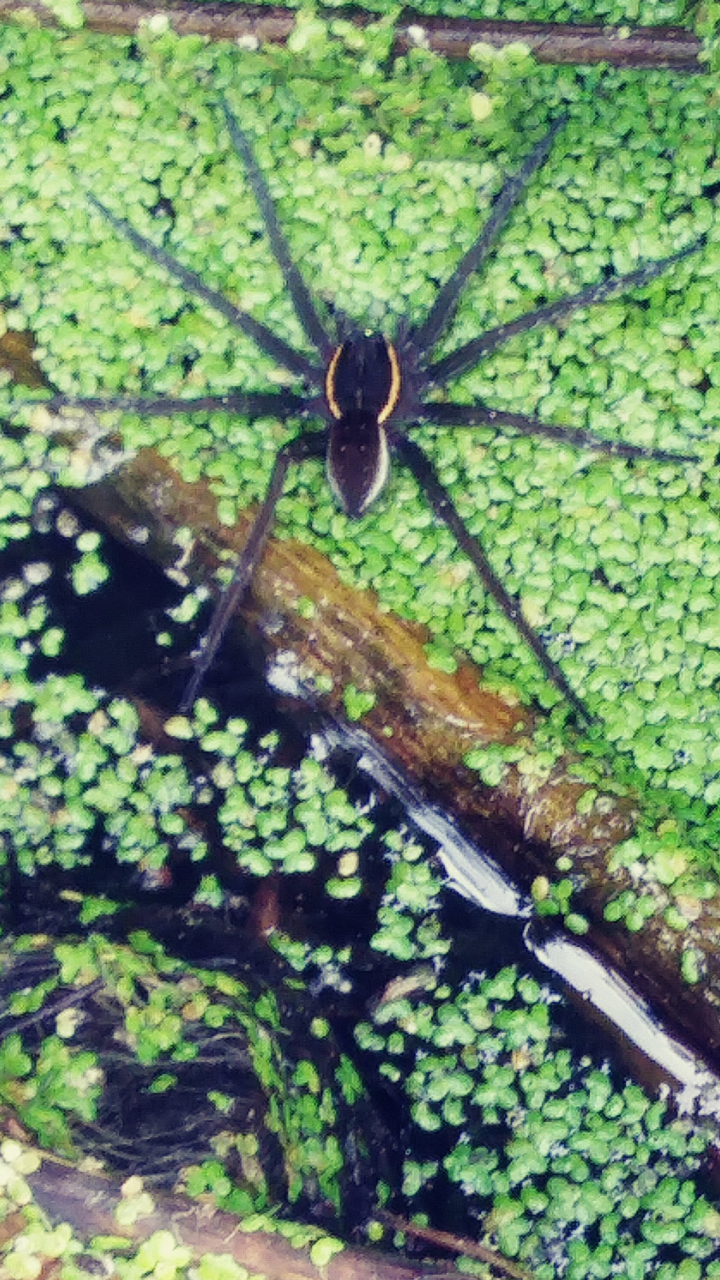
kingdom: Animalia
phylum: Arthropoda
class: Arachnida
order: Araneae
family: Pisauridae
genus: Dolomedes
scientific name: Dolomedes triton
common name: Six-spotted fishing spider
